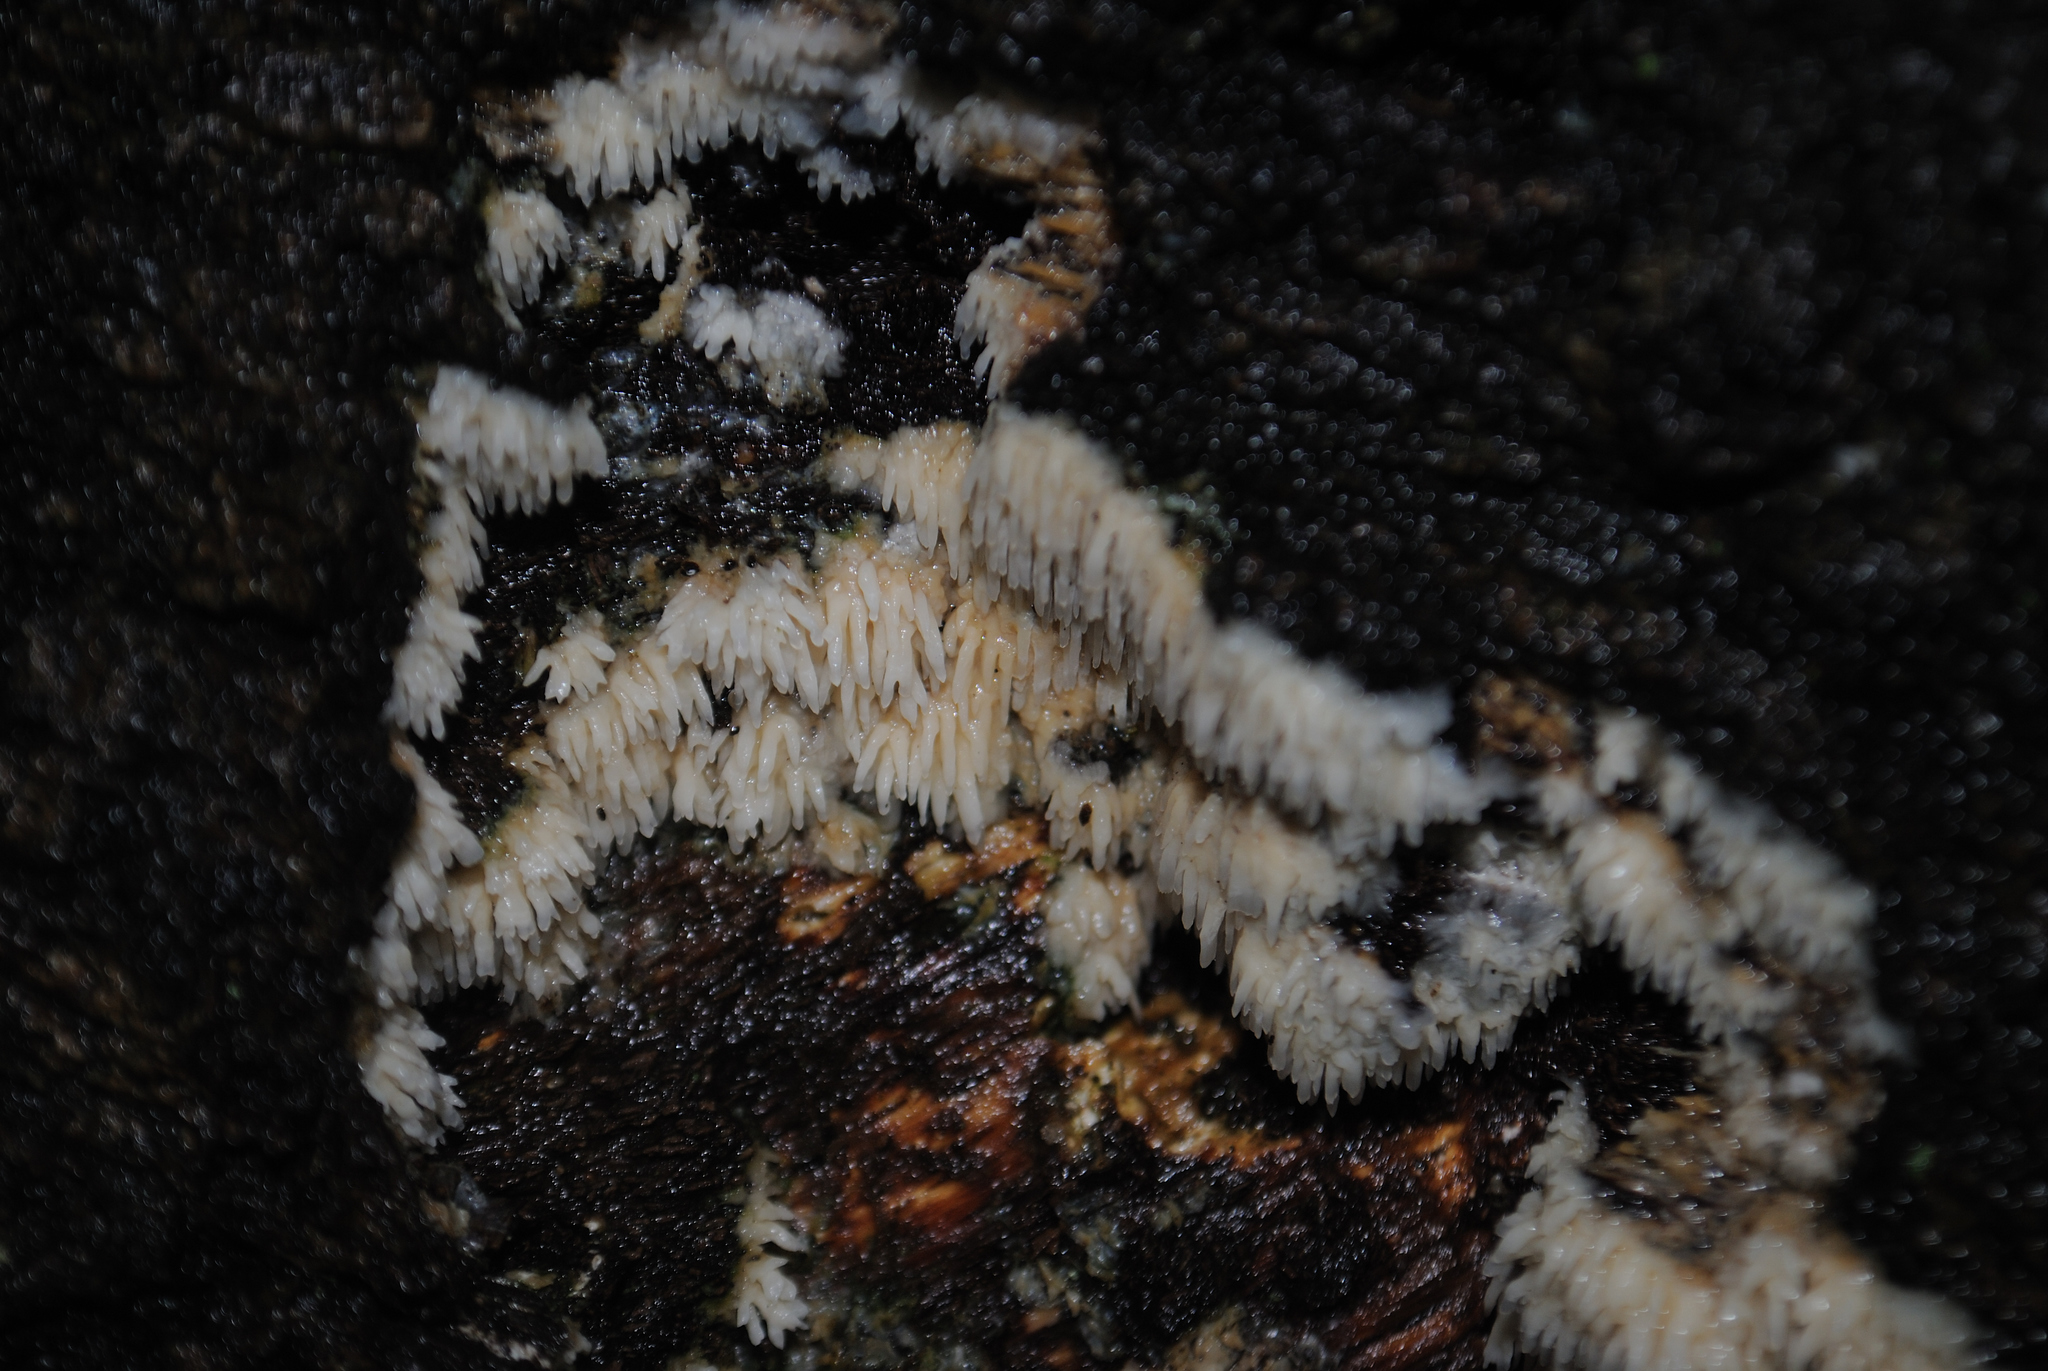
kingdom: Fungi
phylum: Basidiomycota
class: Agaricomycetes
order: Agaricales
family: Radulomycetaceae
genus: Radulomyces
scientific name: Radulomyces copelandii
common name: Asian beauty
